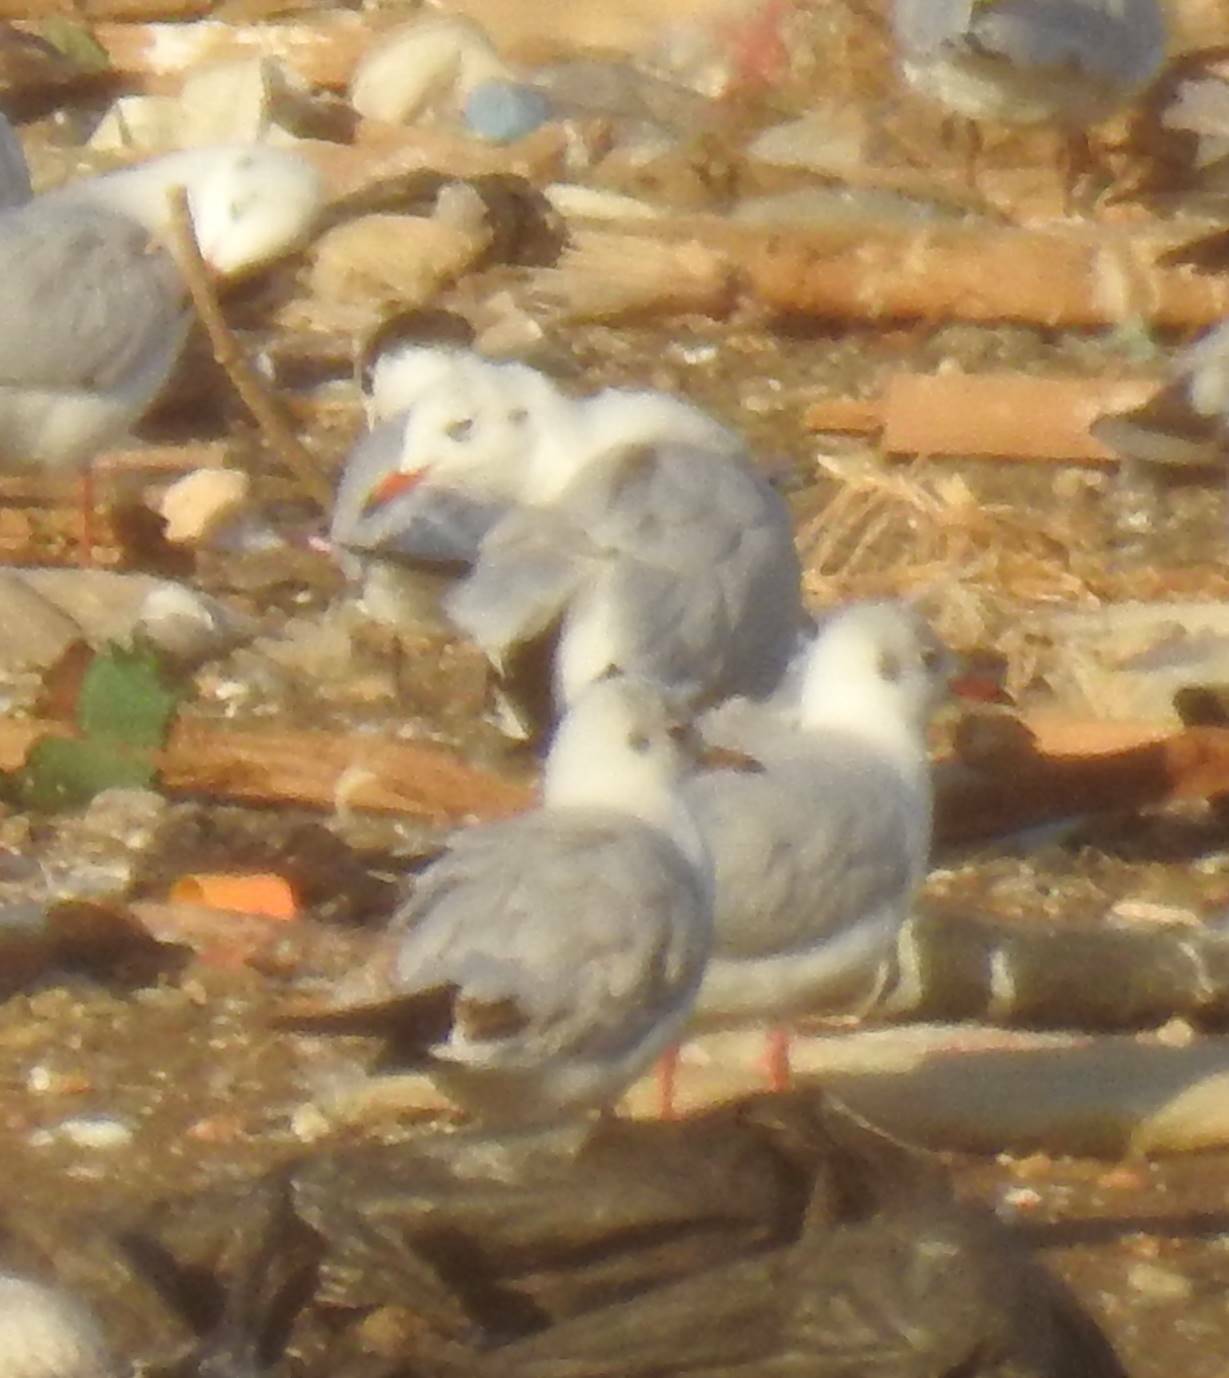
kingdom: Animalia
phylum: Chordata
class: Aves
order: Charadriiformes
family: Laridae
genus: Chroicocephalus
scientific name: Chroicocephalus ridibundus
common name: Black-headed gull
